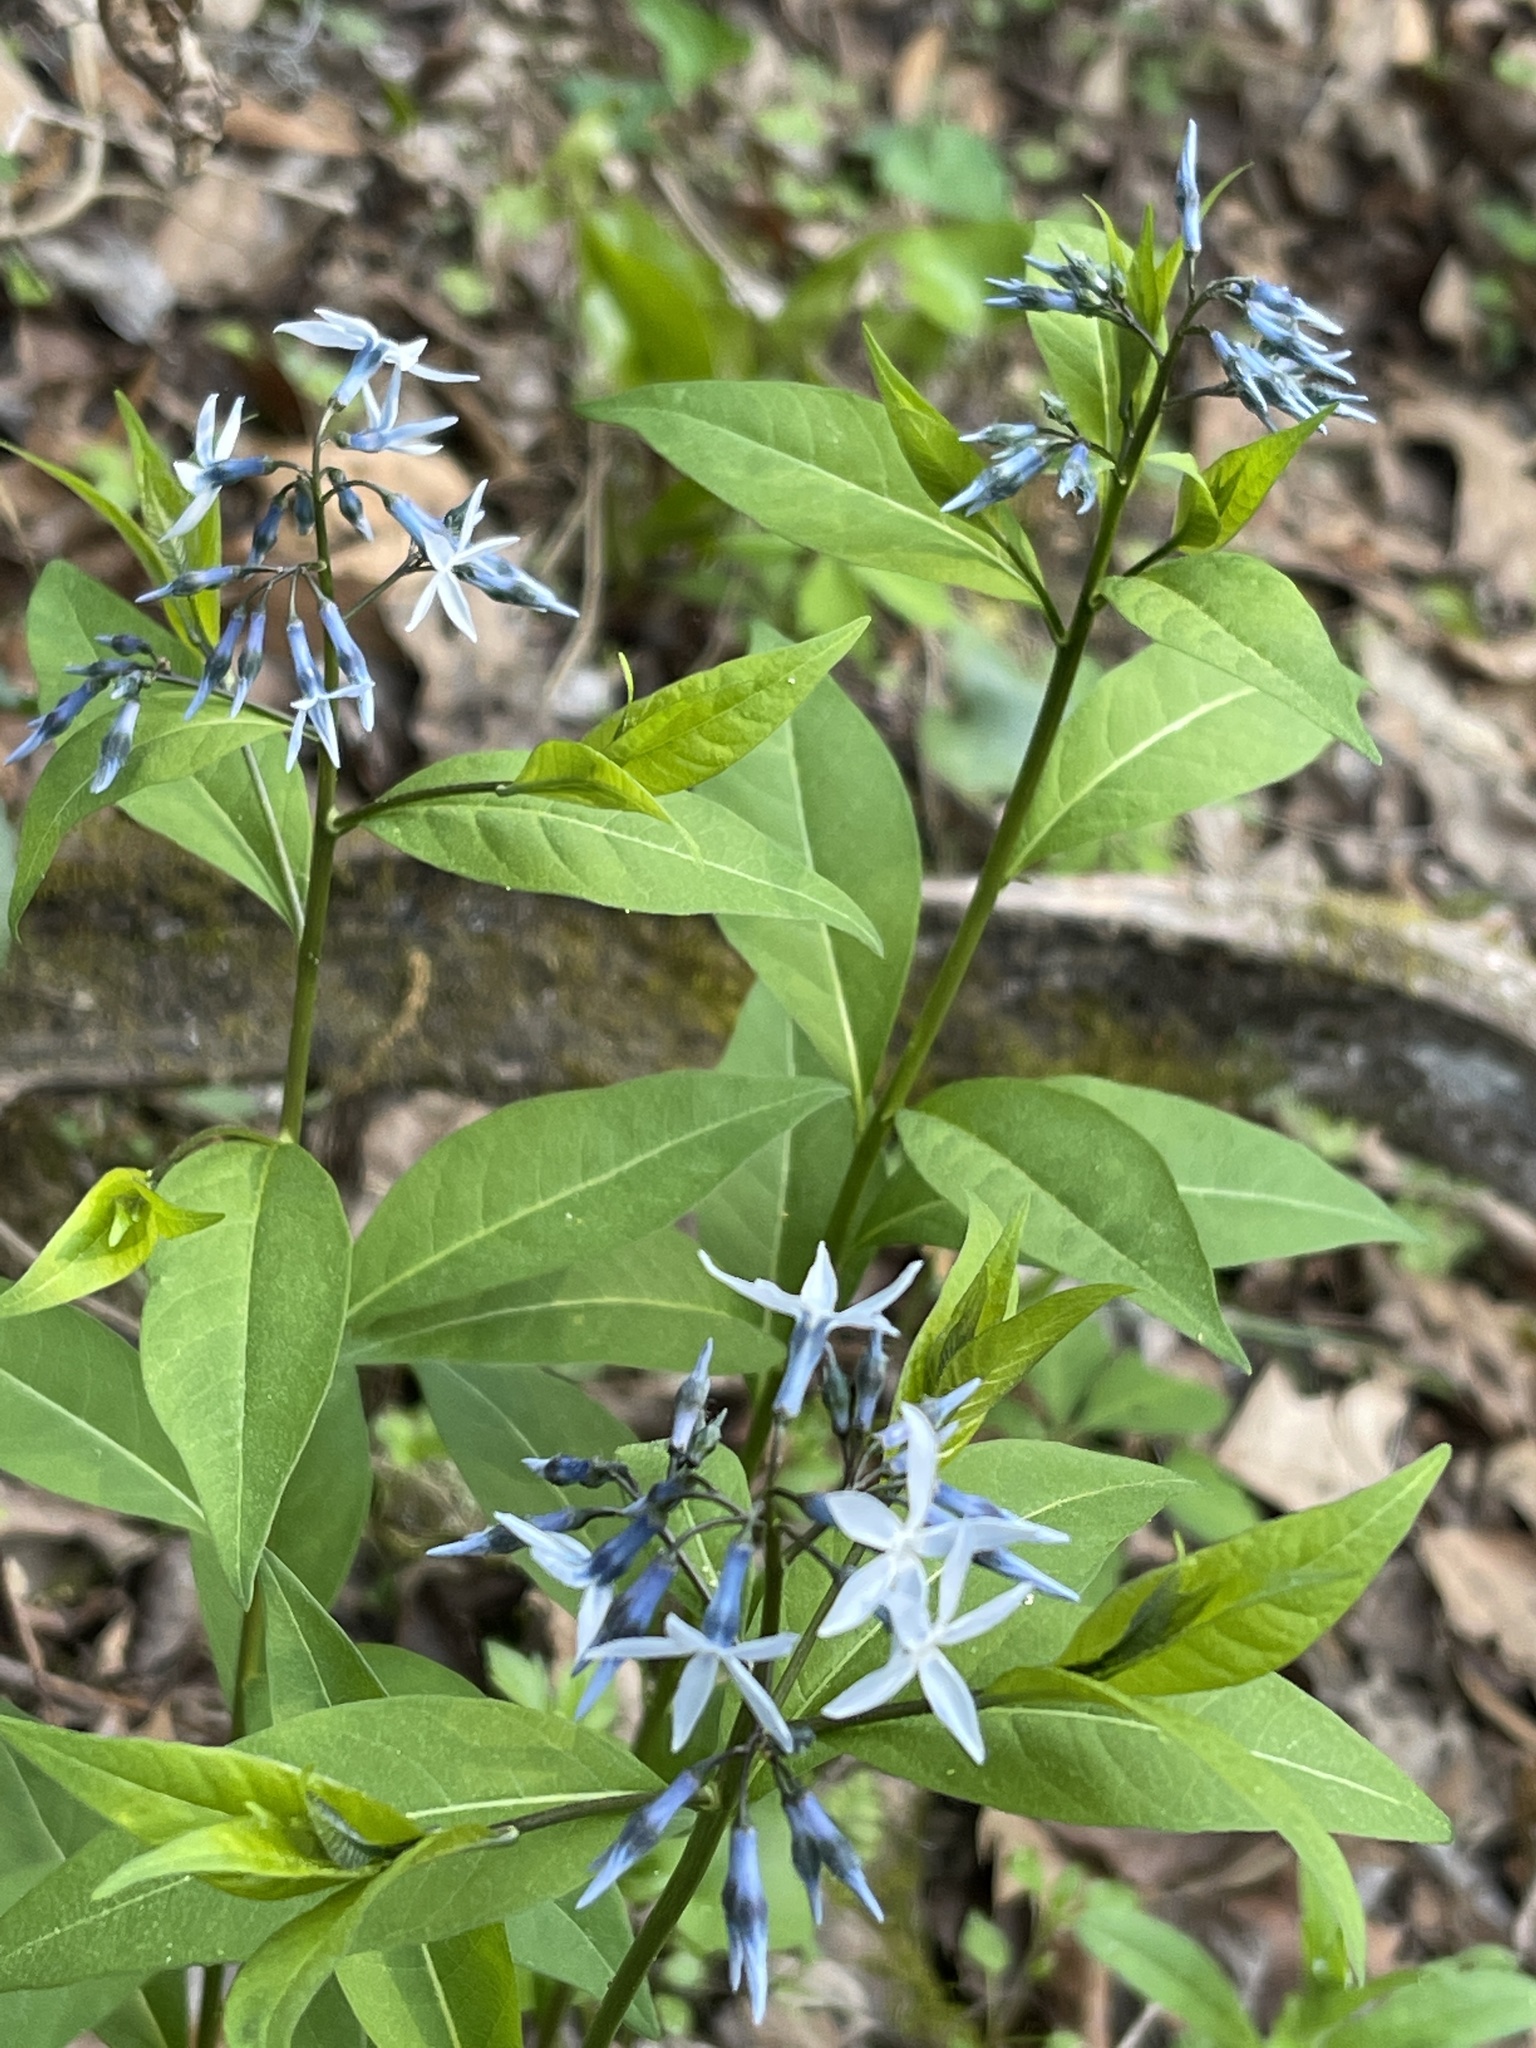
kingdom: Plantae
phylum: Tracheophyta
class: Magnoliopsida
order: Gentianales
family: Apocynaceae
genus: Amsonia
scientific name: Amsonia tabernaemontana
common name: Texas-star
